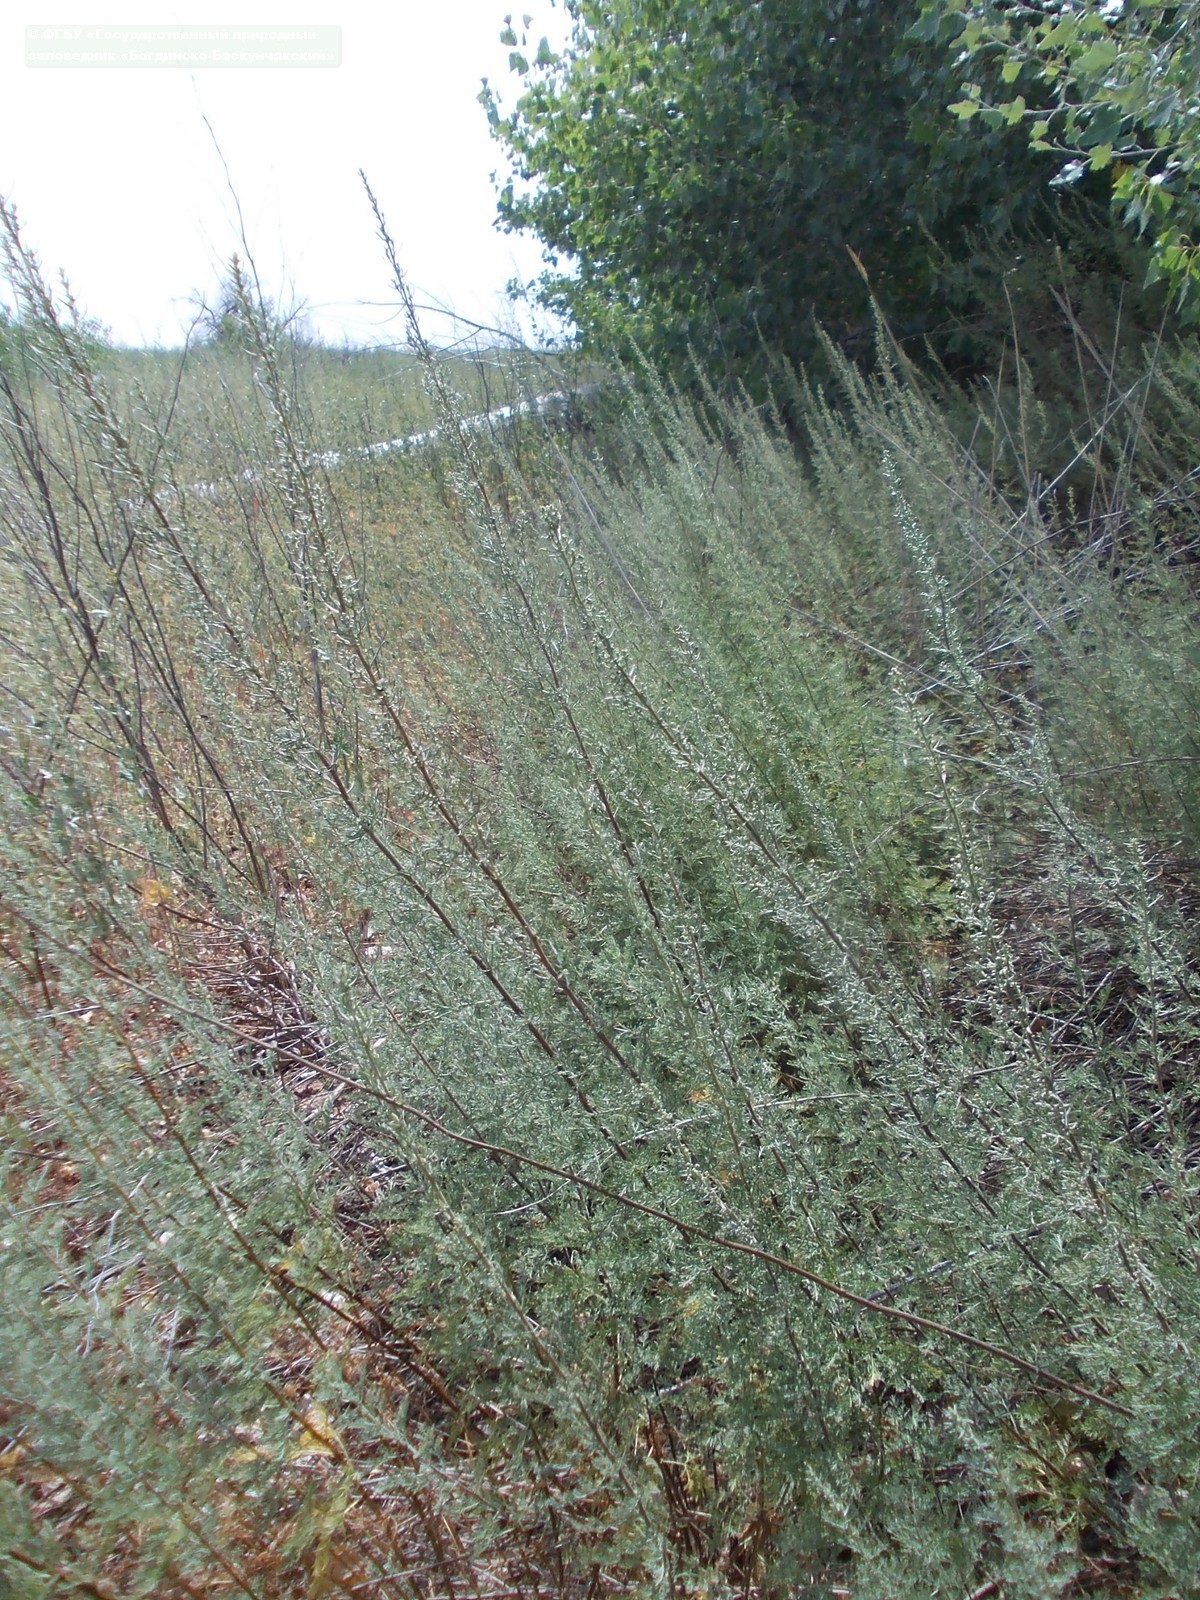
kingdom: Plantae
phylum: Tracheophyta
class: Magnoliopsida
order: Asterales
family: Asteraceae
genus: Artemisia
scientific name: Artemisia abrotanum
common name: Southernwood
